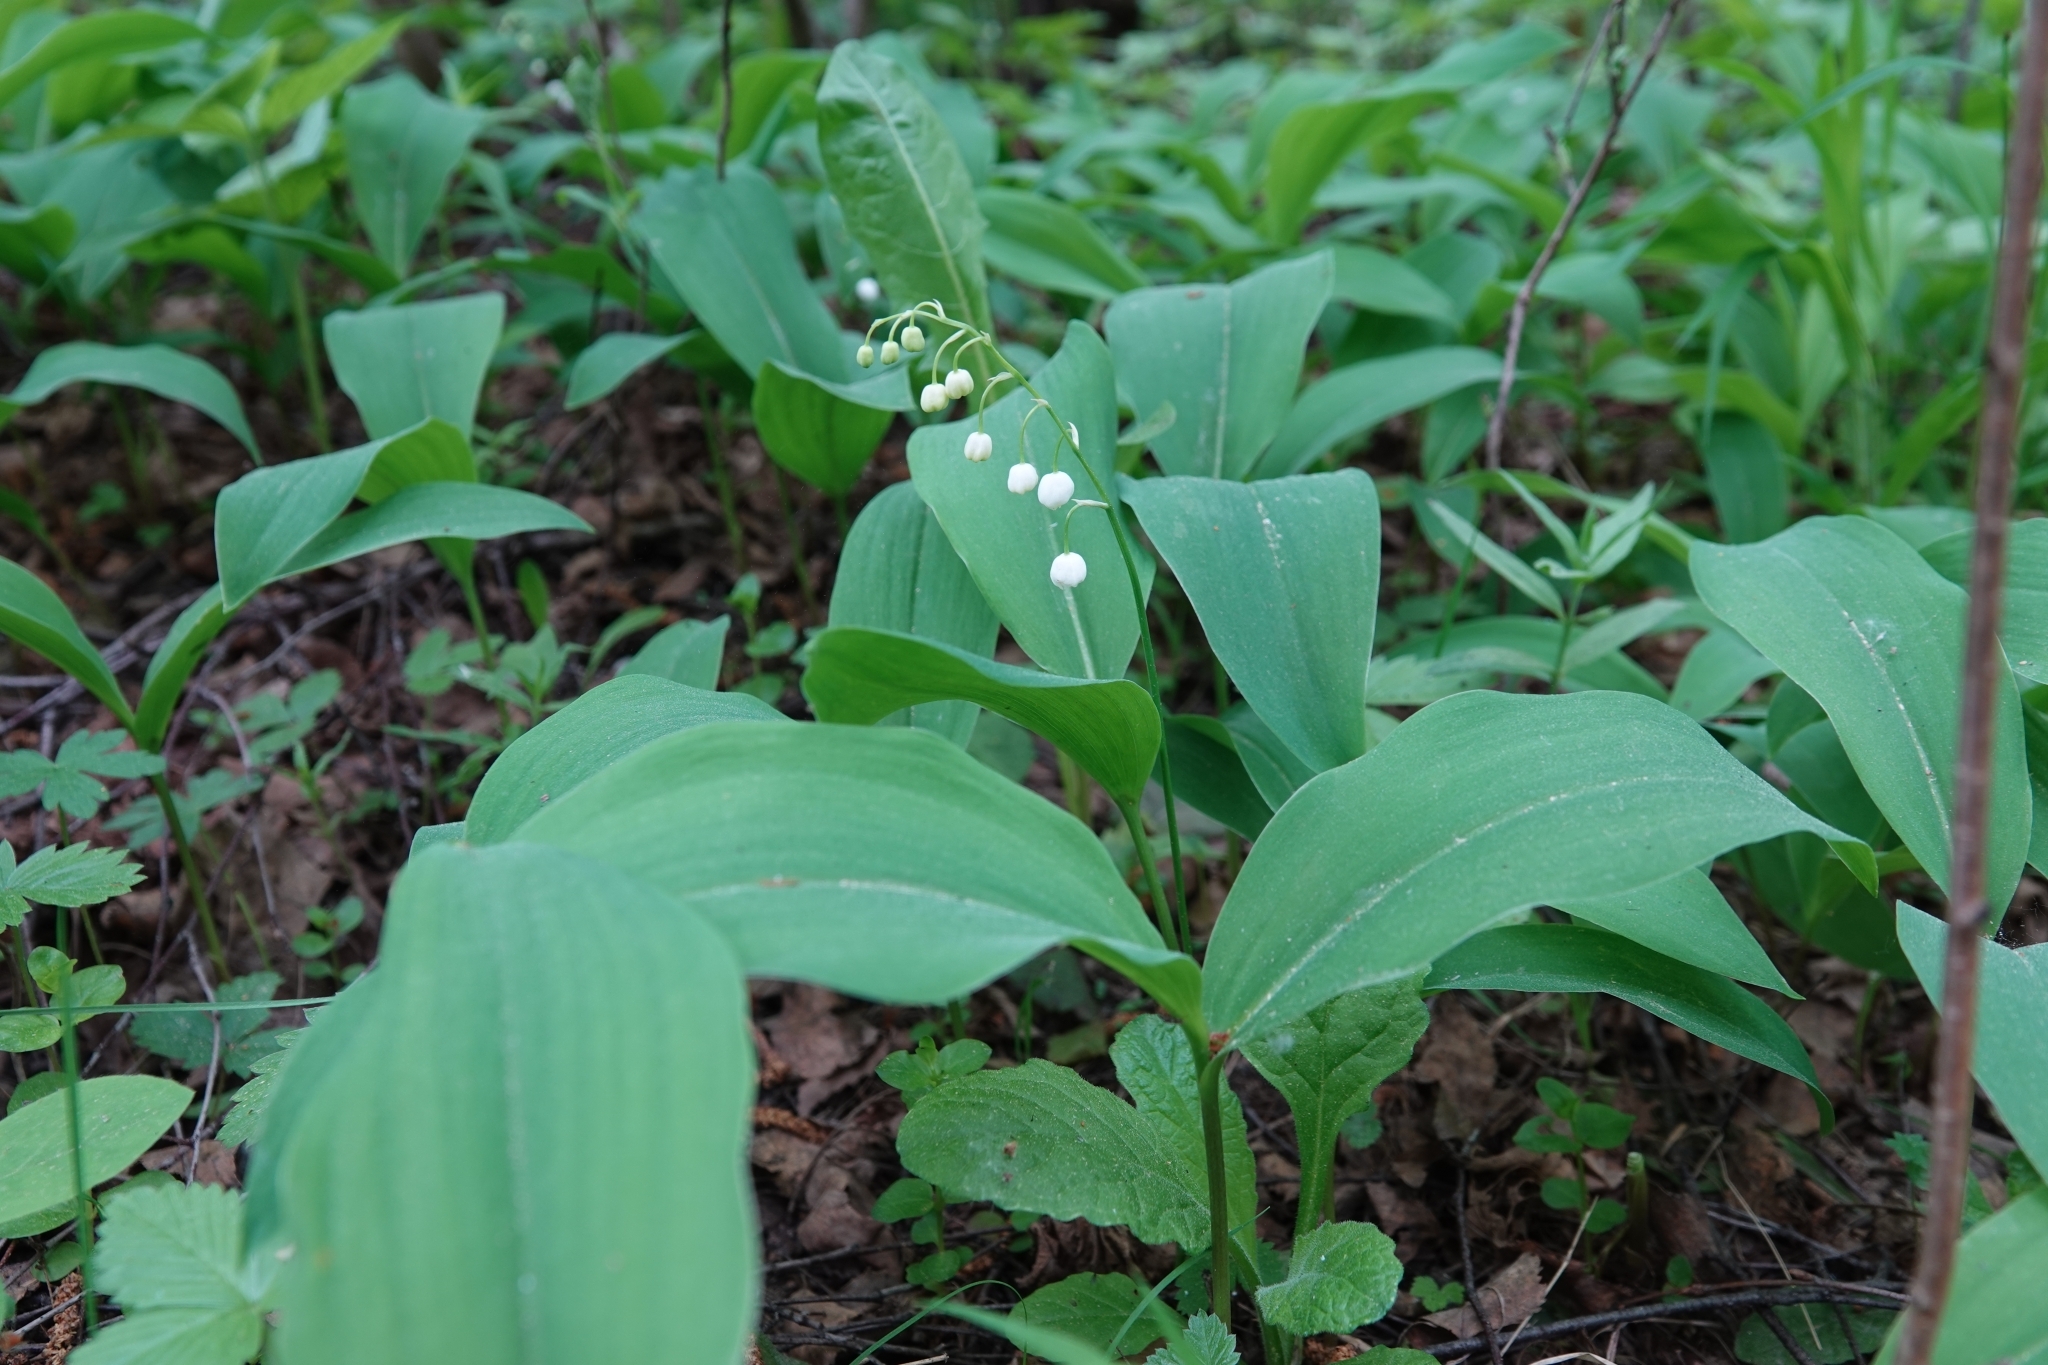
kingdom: Plantae
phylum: Tracheophyta
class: Liliopsida
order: Asparagales
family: Asparagaceae
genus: Convallaria
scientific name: Convallaria majalis
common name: Lily-of-the-valley
